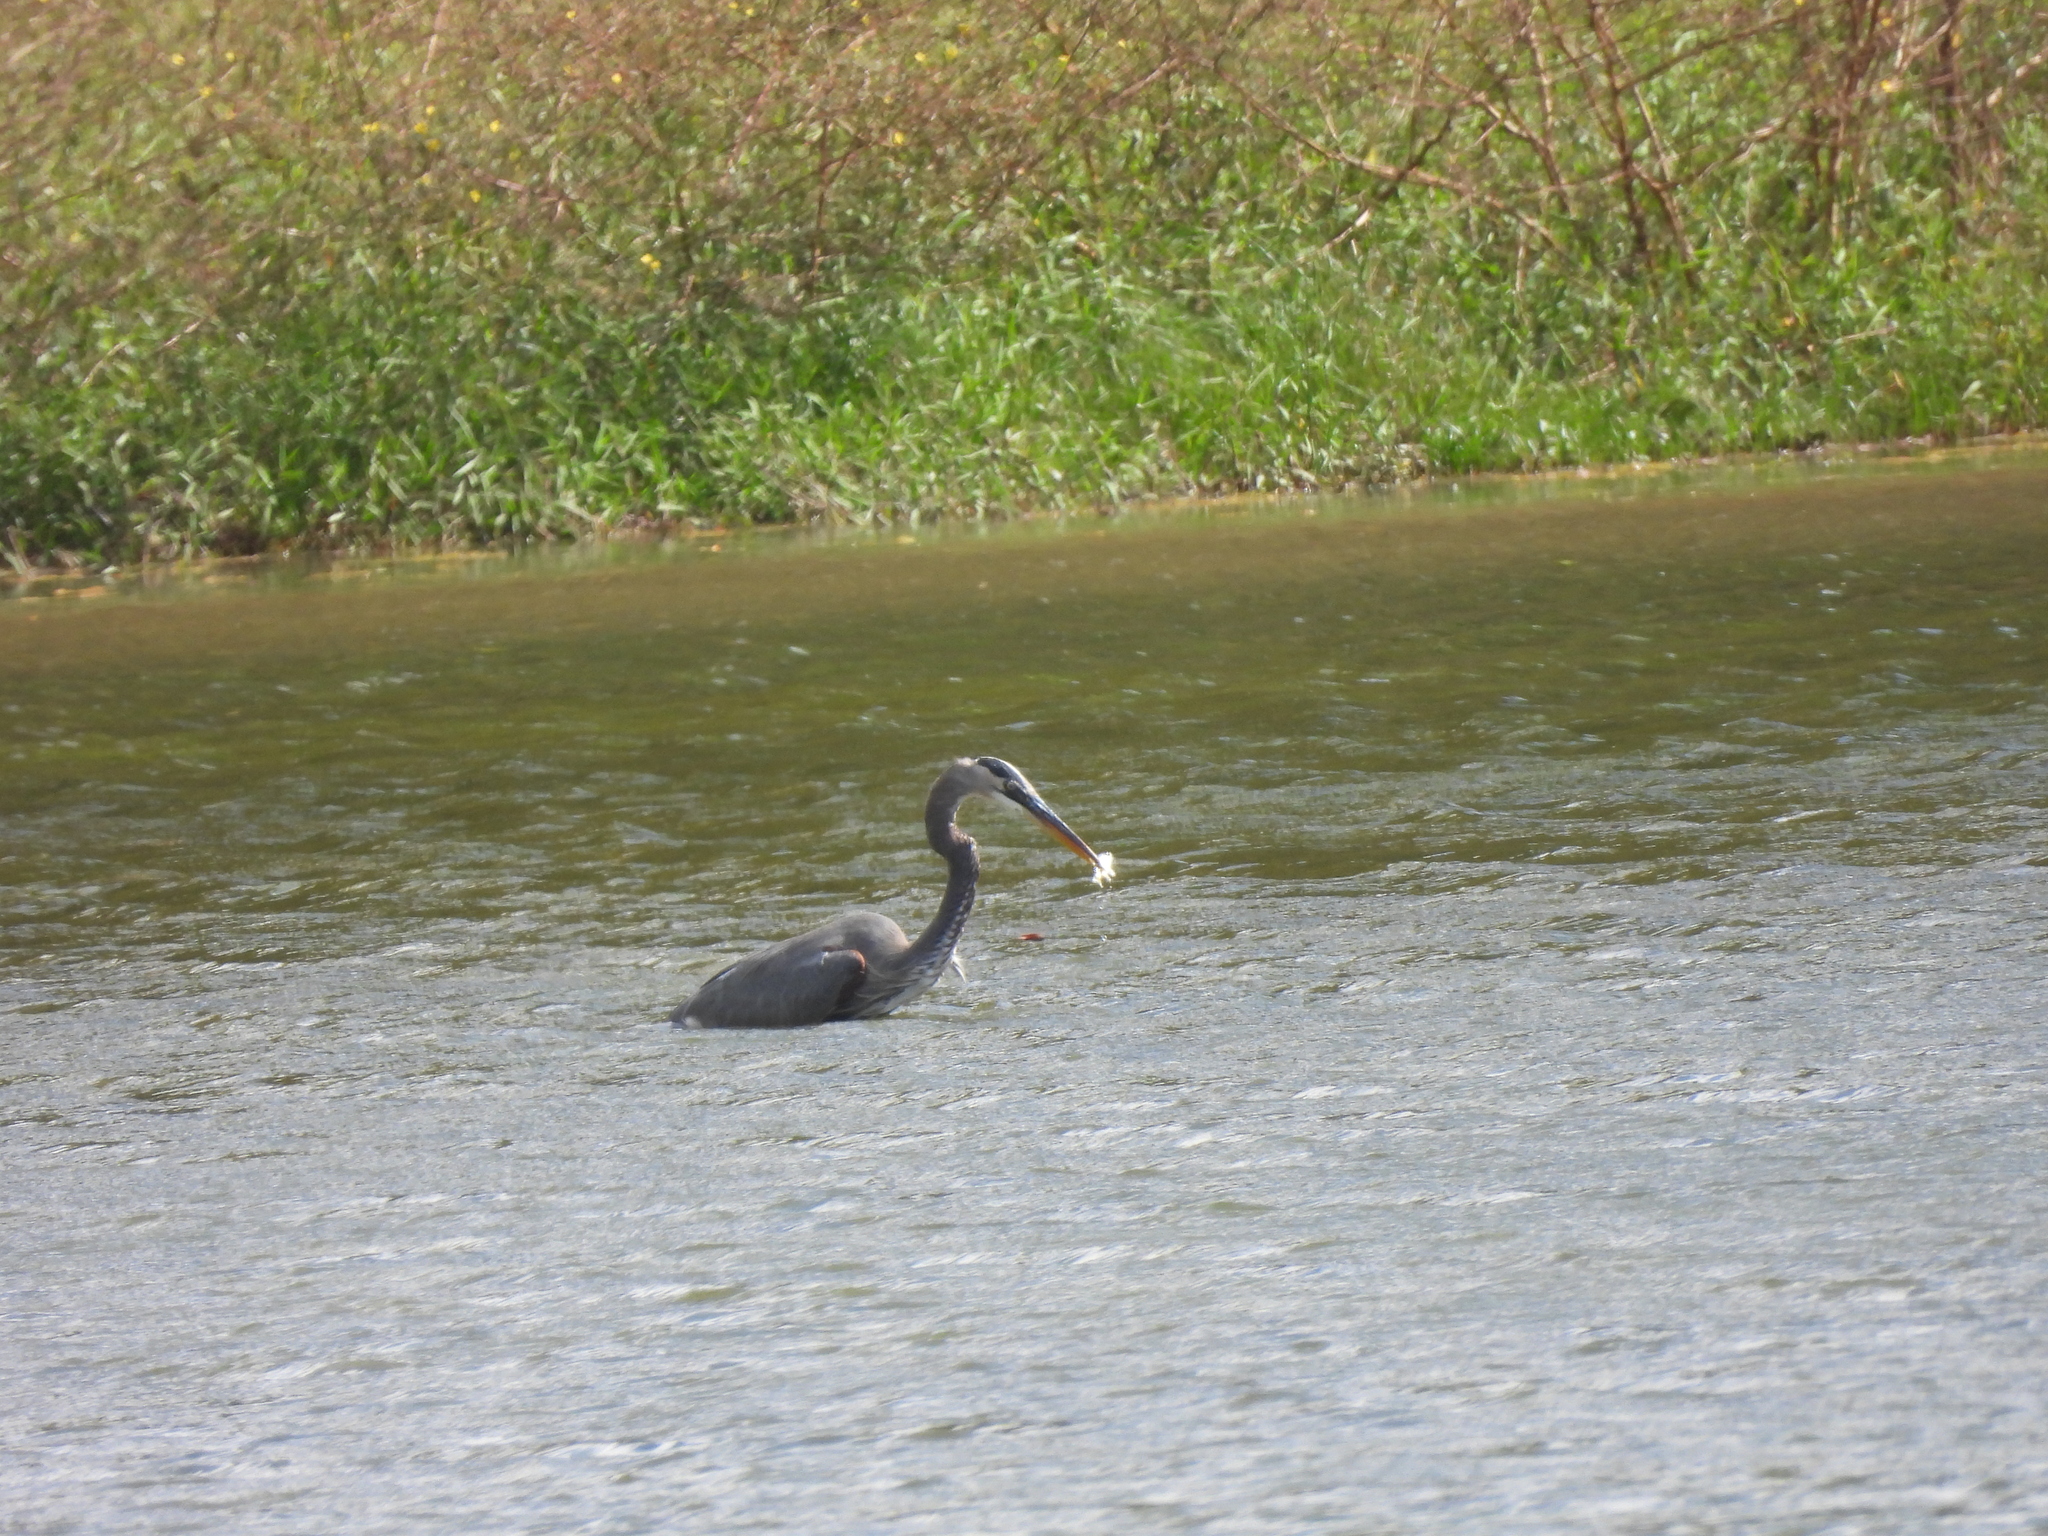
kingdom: Animalia
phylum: Chordata
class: Aves
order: Pelecaniformes
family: Ardeidae
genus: Ardea
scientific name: Ardea herodias
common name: Great blue heron
